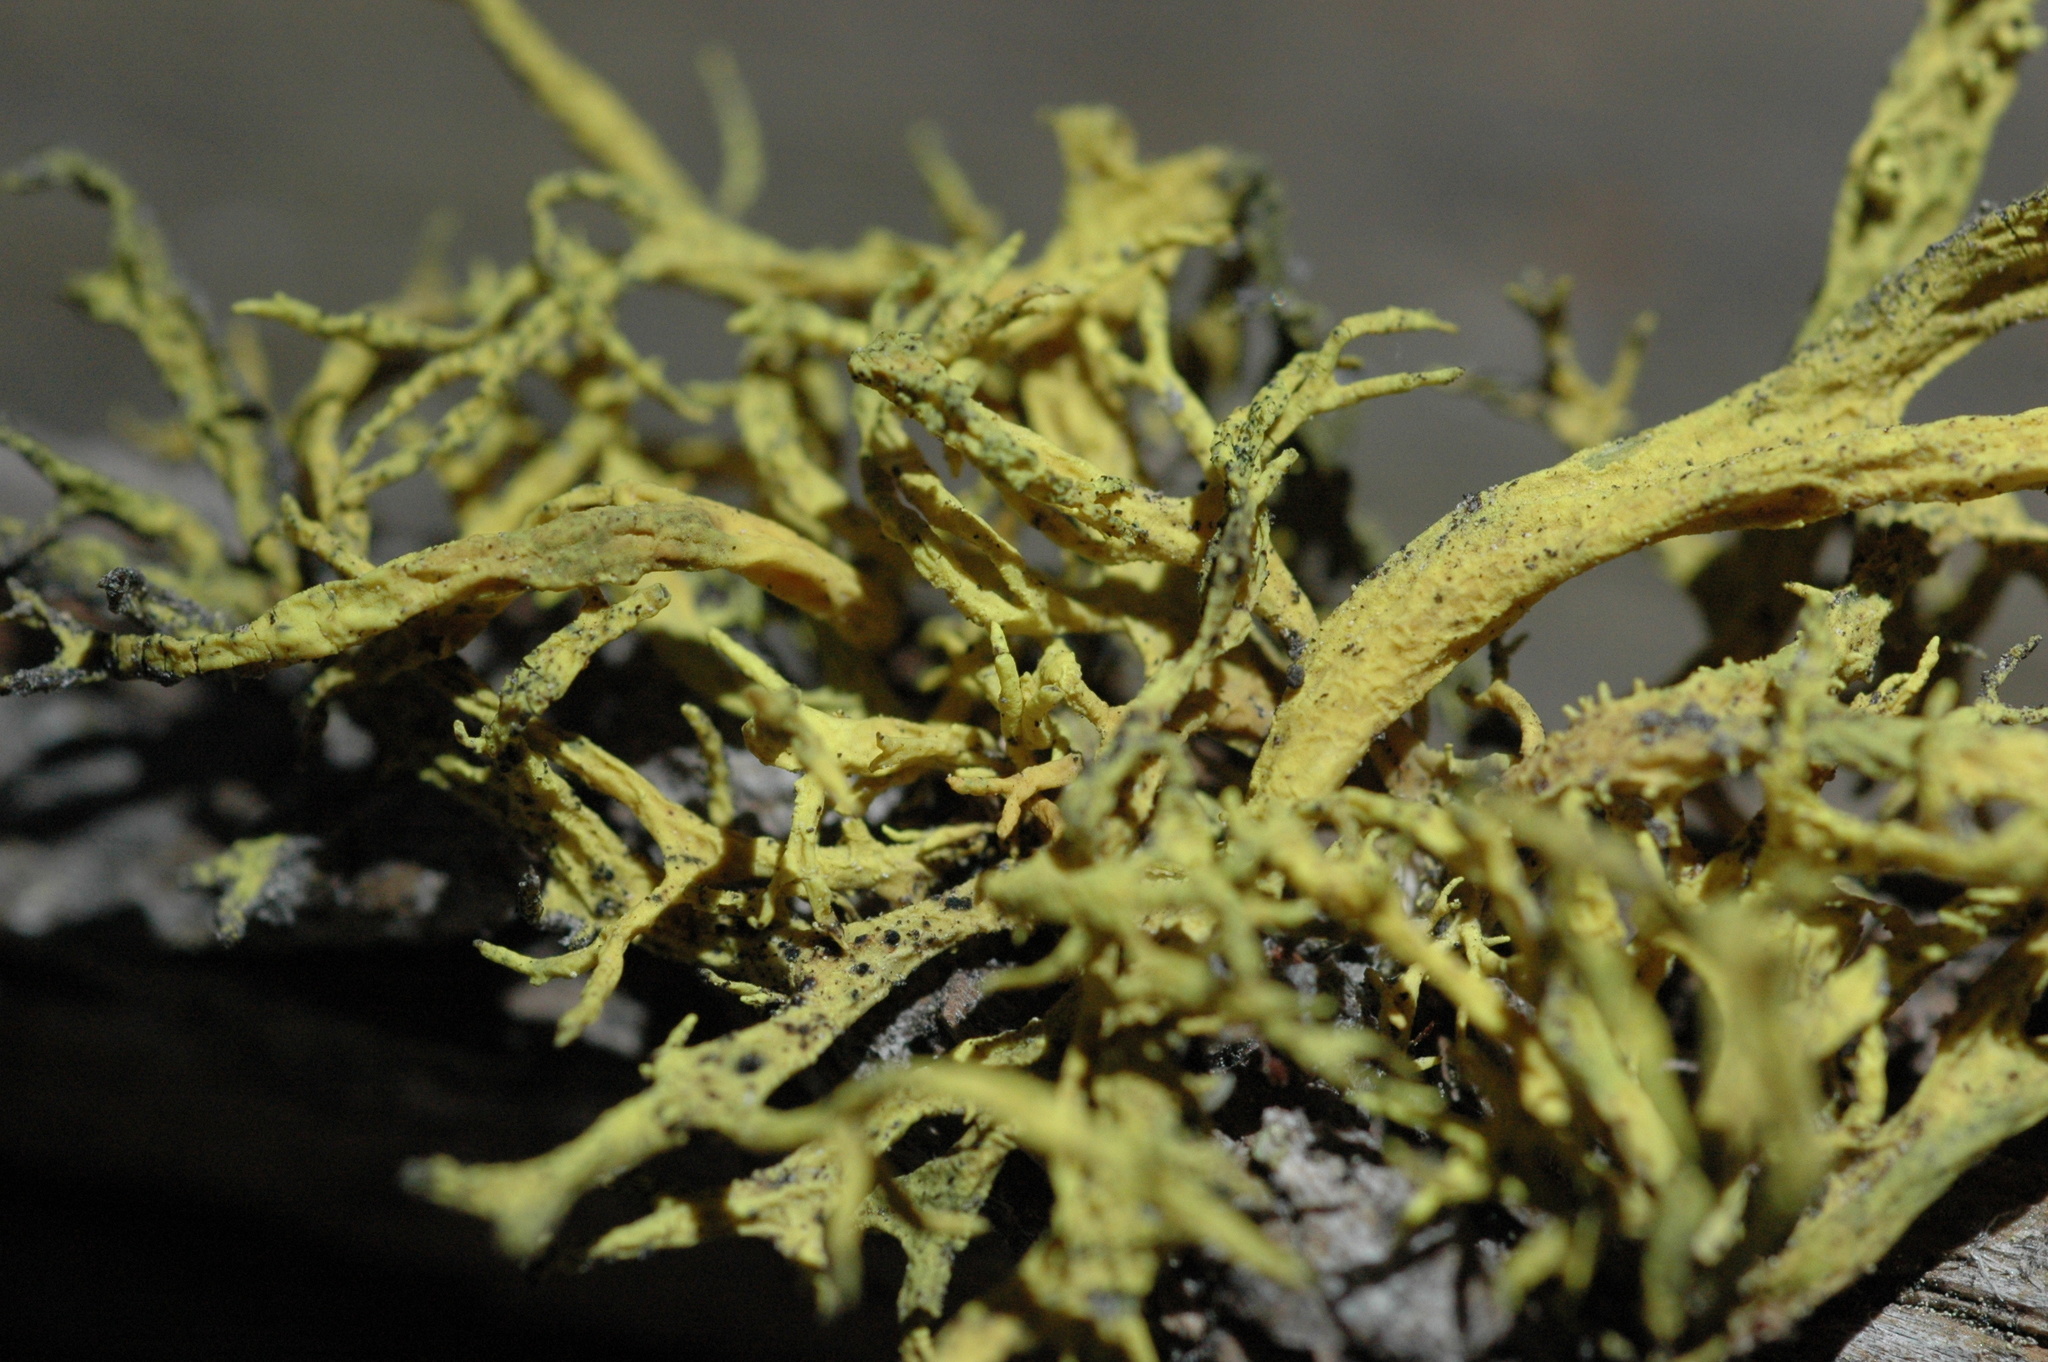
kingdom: Fungi
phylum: Ascomycota
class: Lecanoromycetes
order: Lecanorales
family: Parmeliaceae
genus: Letharia
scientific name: Letharia vulpina
